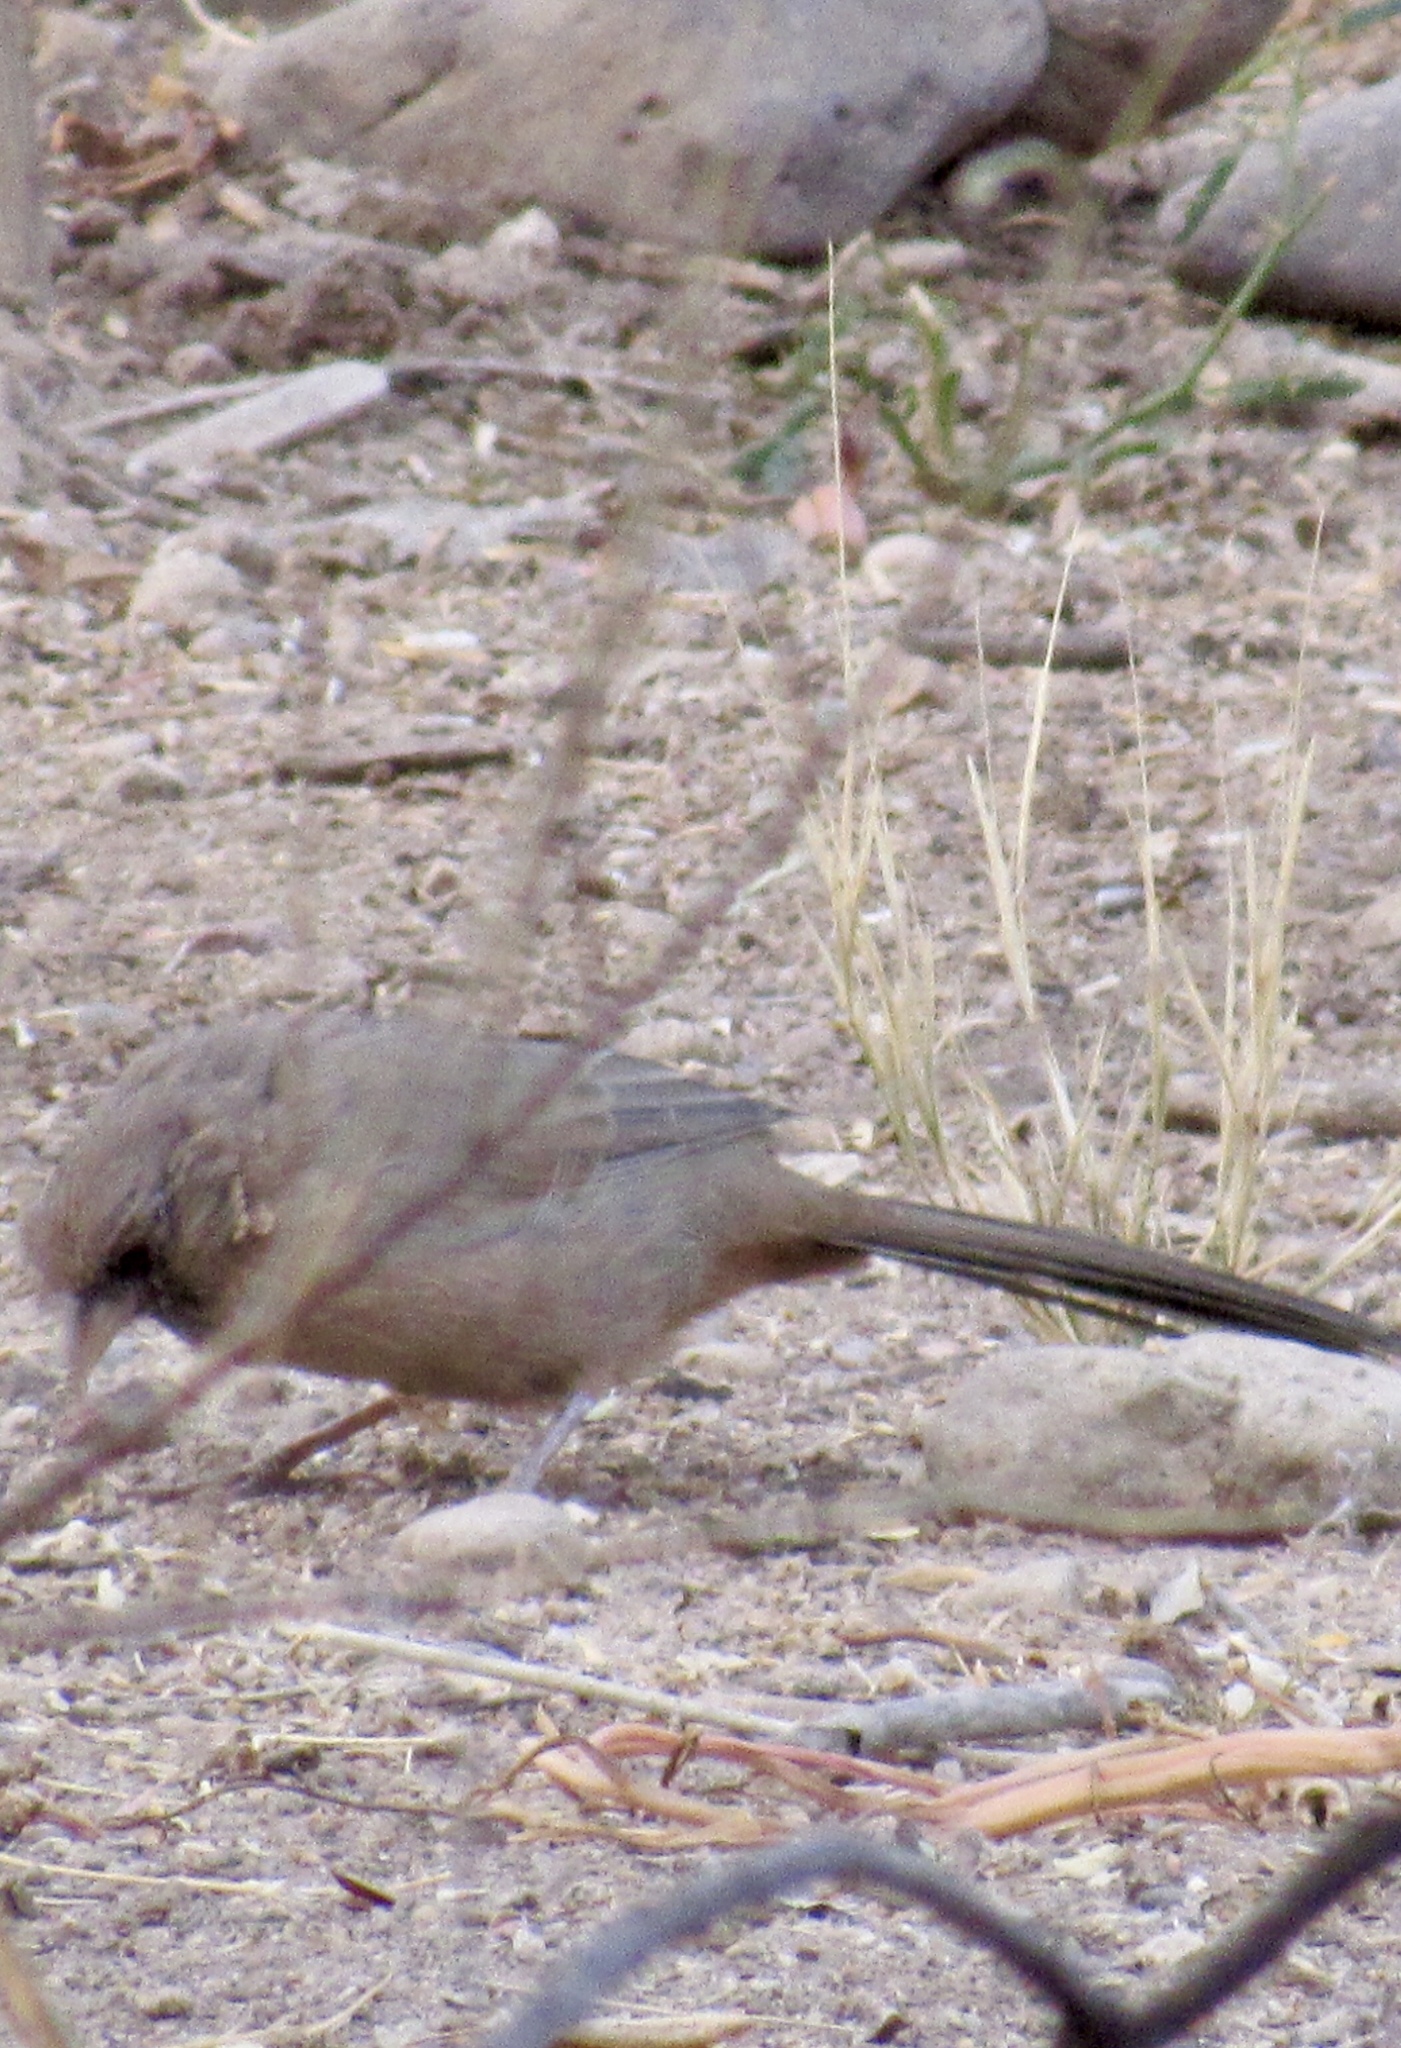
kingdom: Animalia
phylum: Chordata
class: Aves
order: Passeriformes
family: Passerellidae
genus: Melozone
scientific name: Melozone aberti
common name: Abert's towhee
